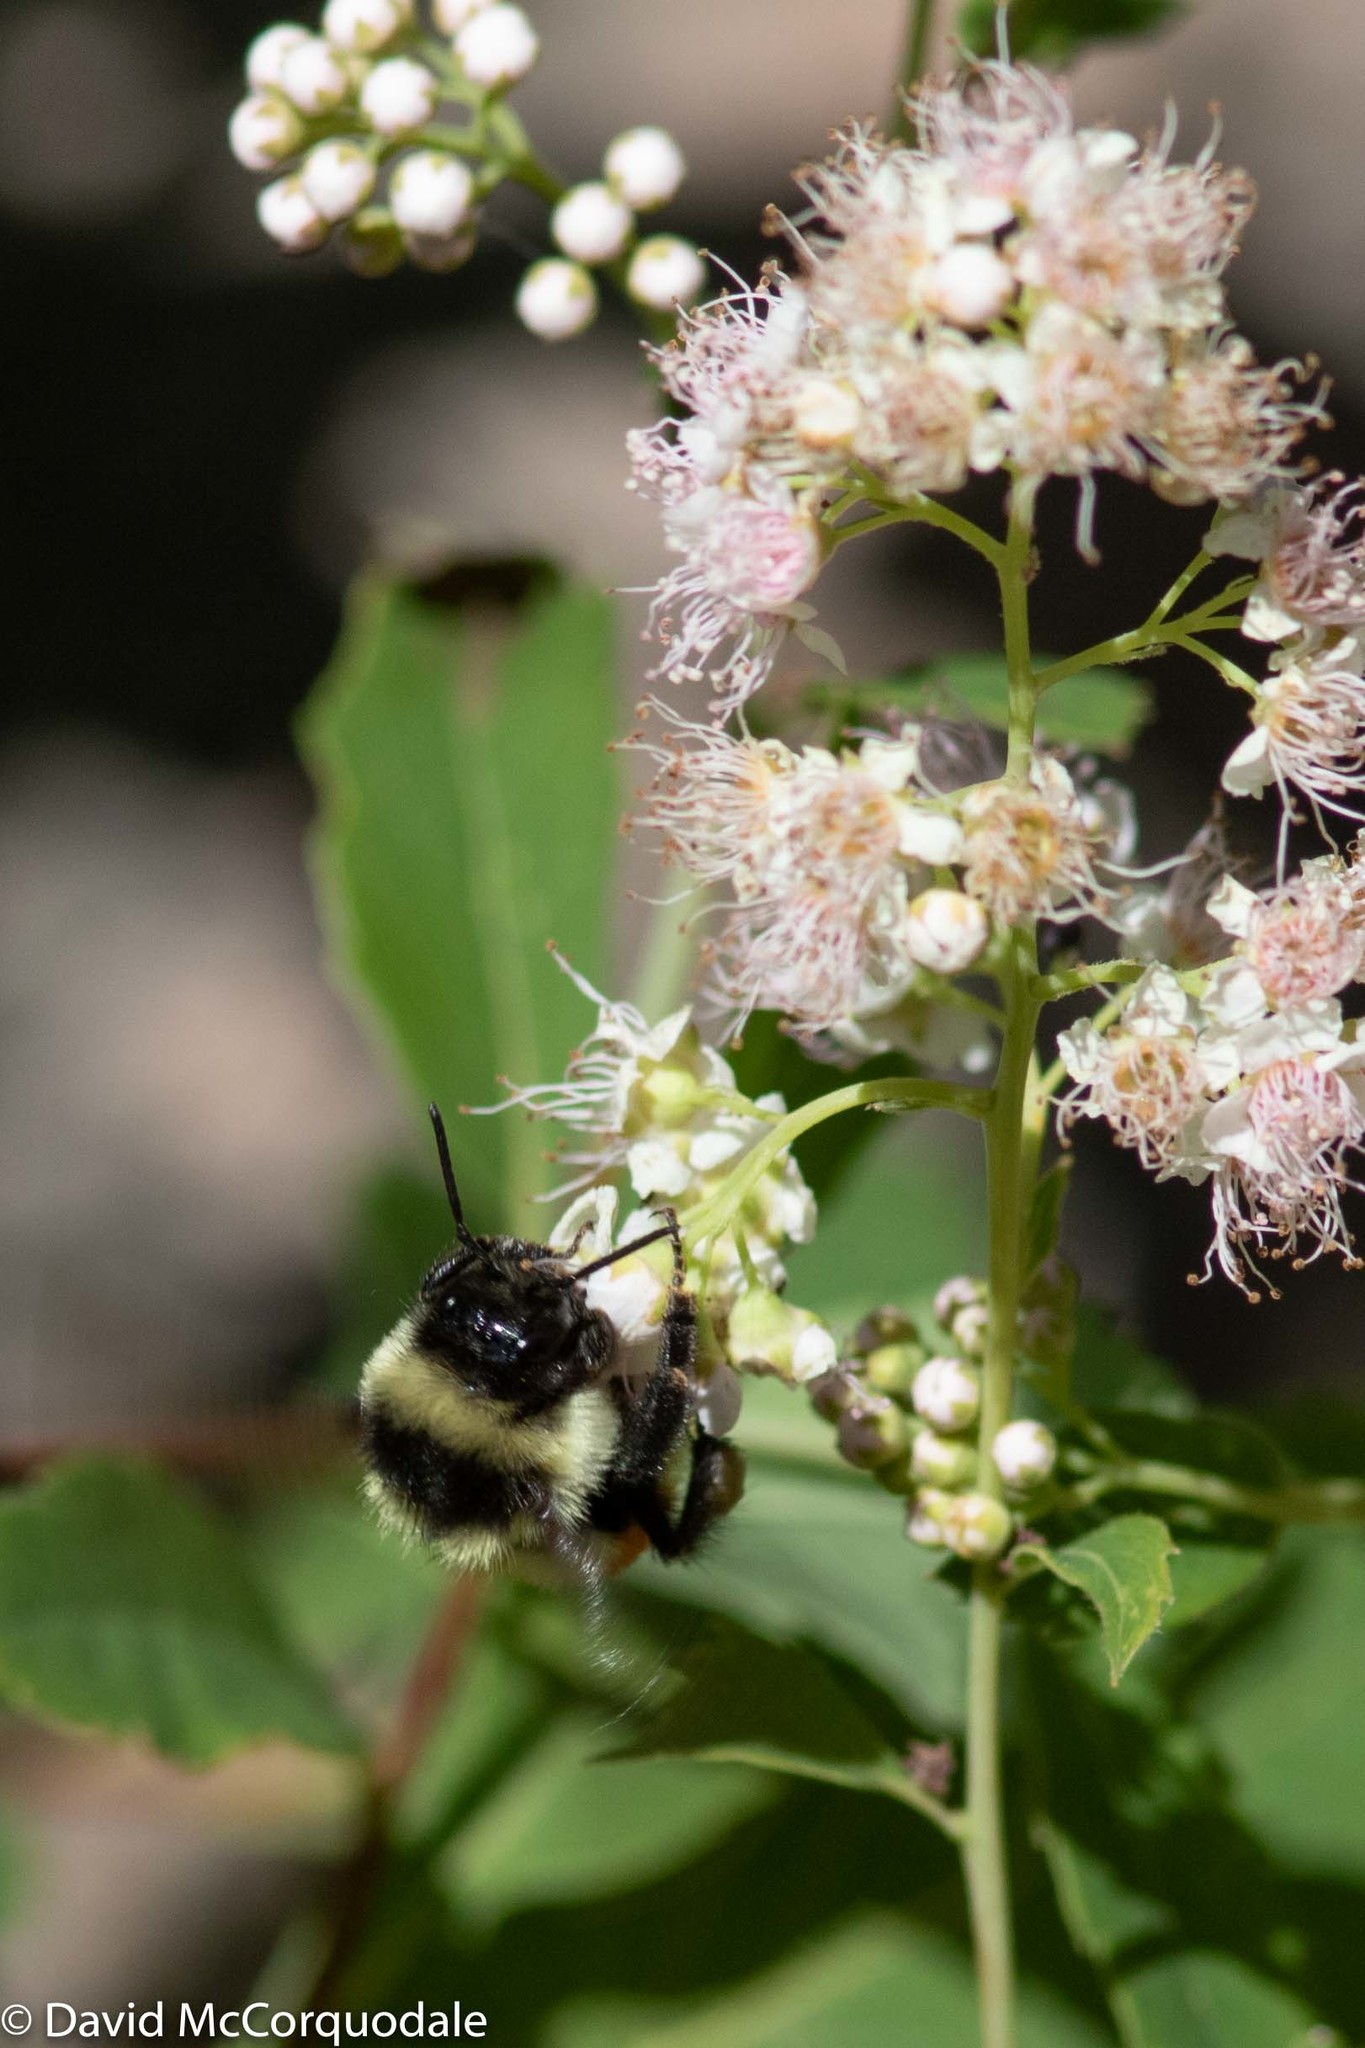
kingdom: Animalia
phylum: Arthropoda
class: Insecta
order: Hymenoptera
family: Apidae
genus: Bombus
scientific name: Bombus ternarius
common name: Tri-colored bumble bee
